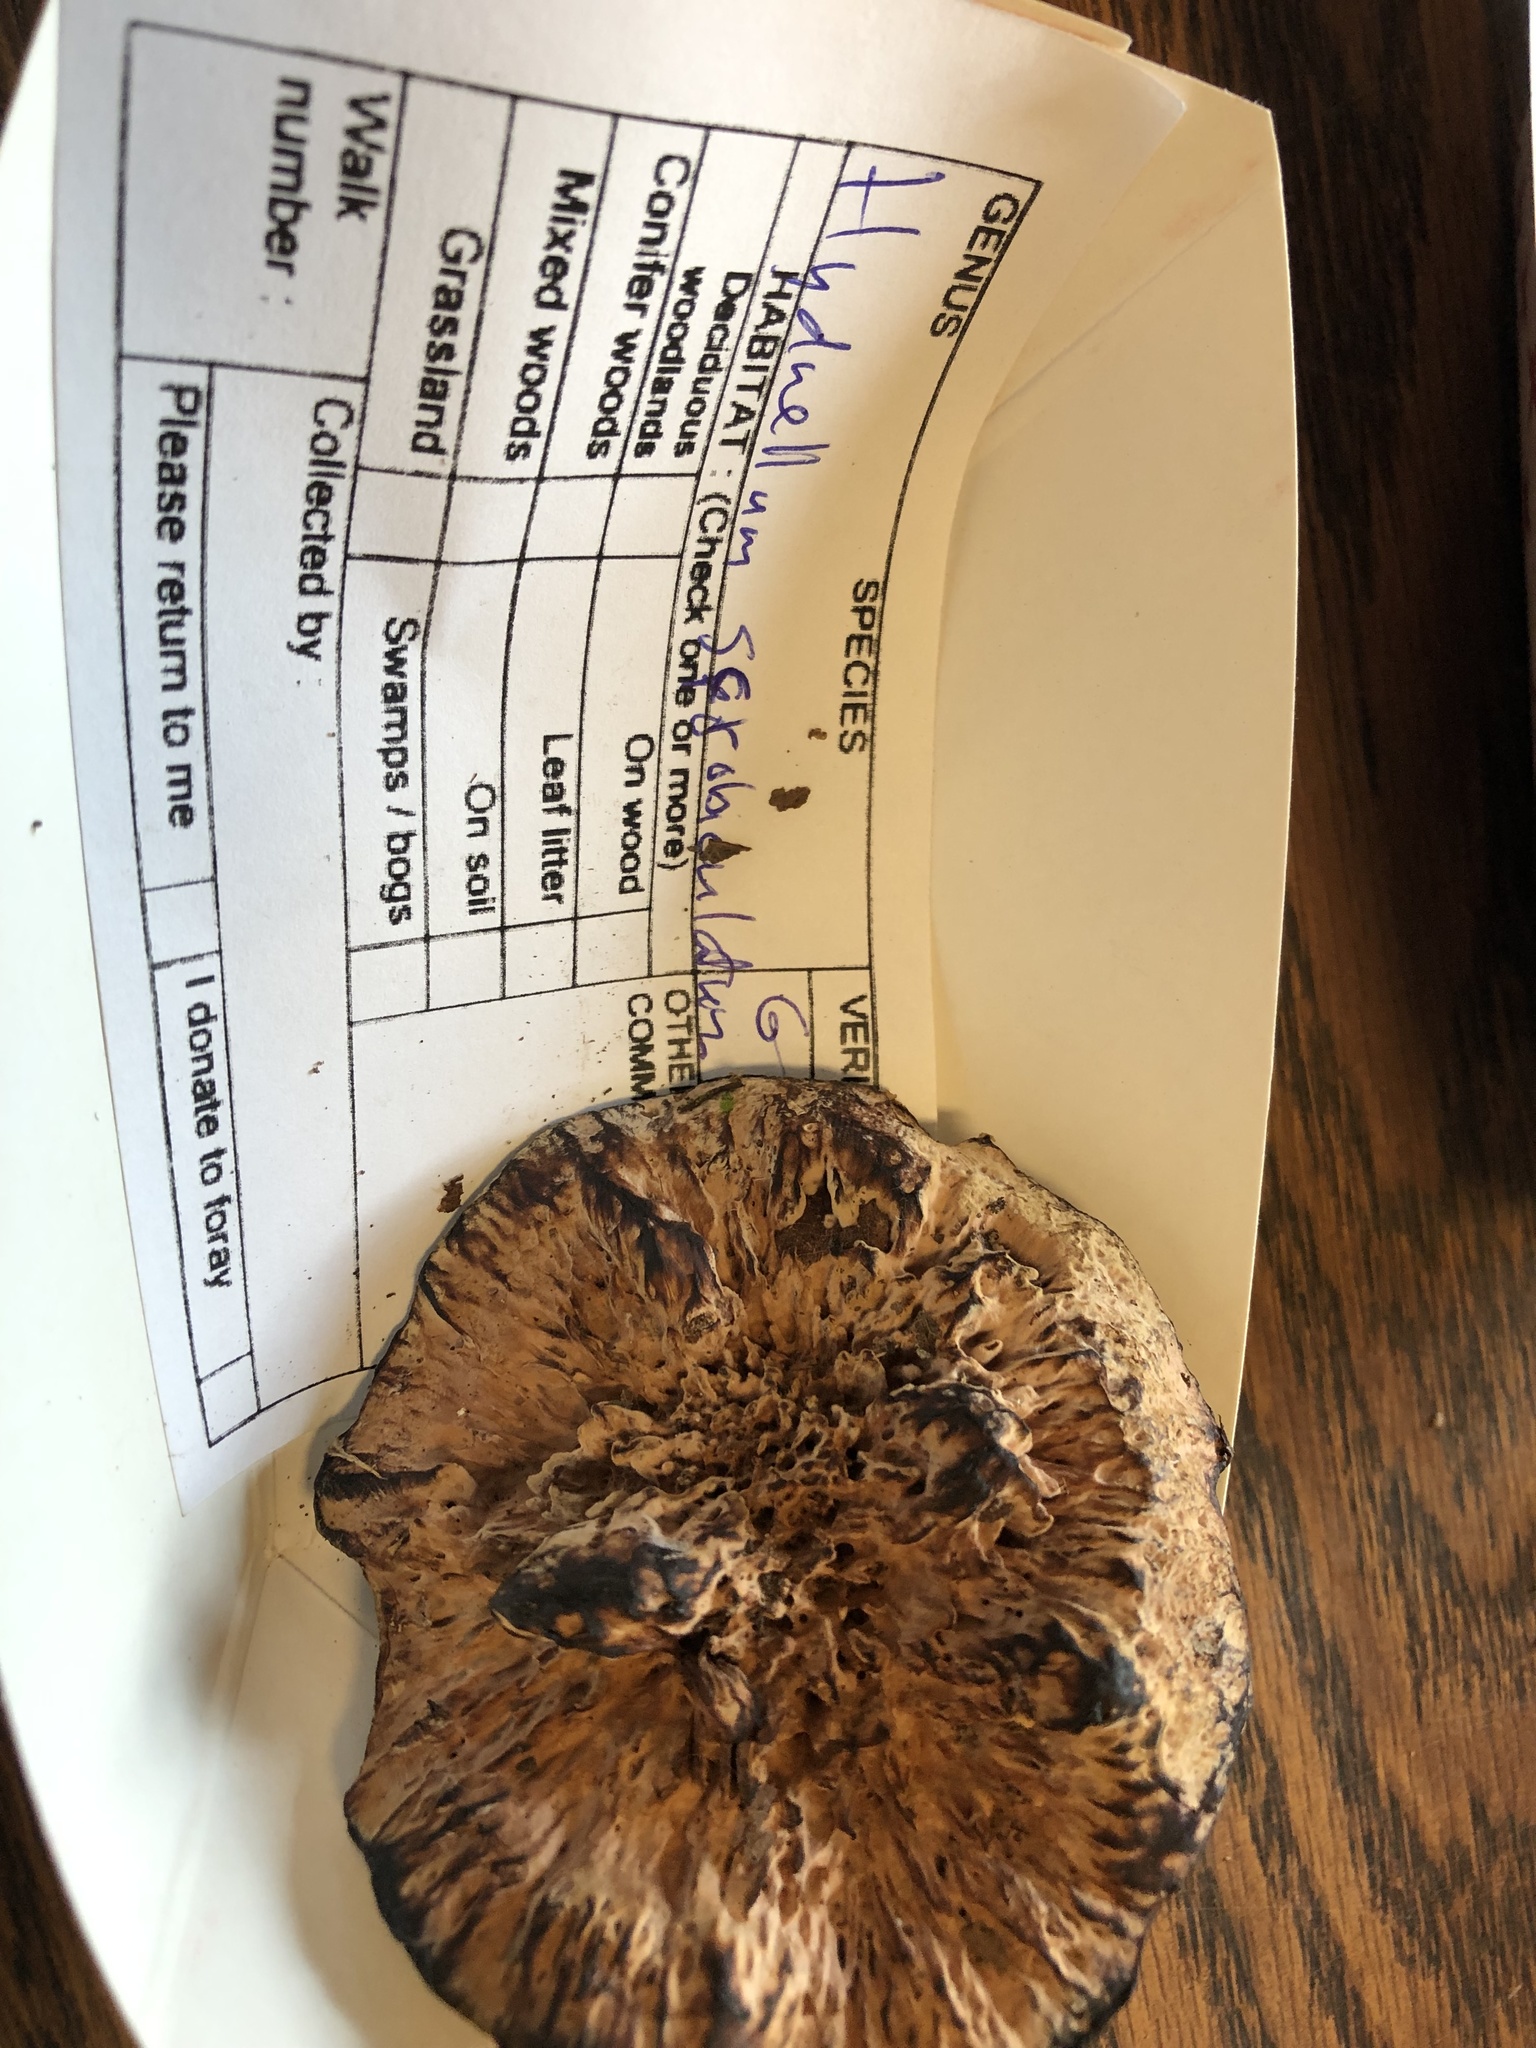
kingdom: Fungi
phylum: Basidiomycota
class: Agaricomycetes
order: Thelephorales
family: Bankeraceae
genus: Hydnellum
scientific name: Hydnellum scrobiculatum
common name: Ridged tooth
